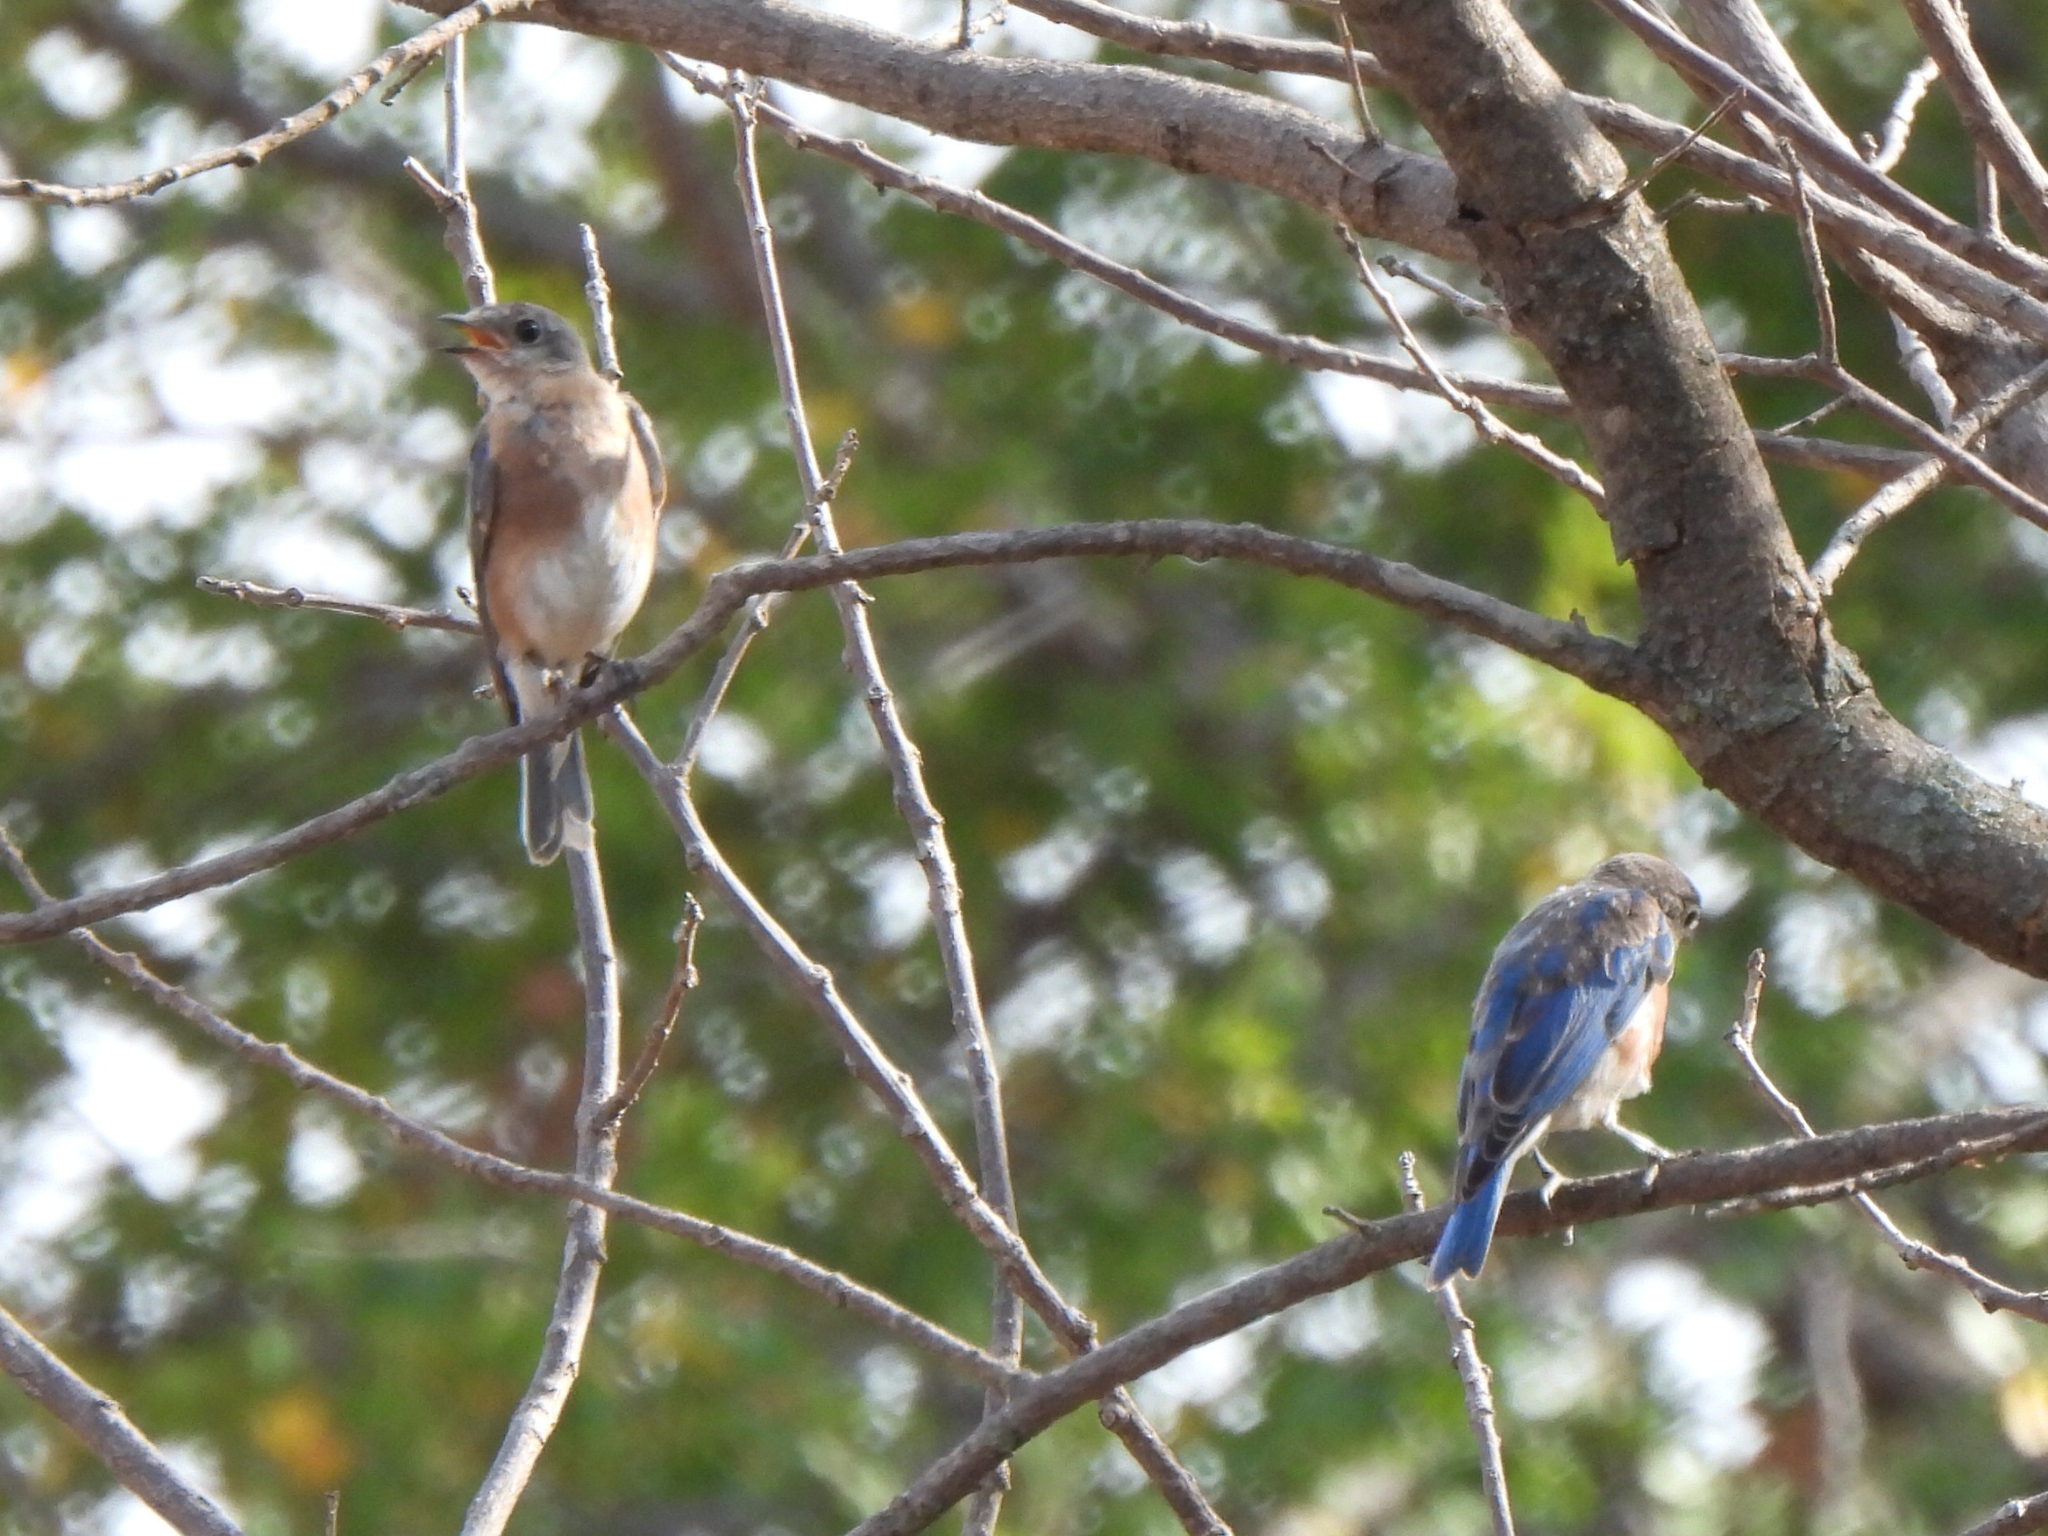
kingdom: Animalia
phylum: Chordata
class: Aves
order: Passeriformes
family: Turdidae
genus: Sialia
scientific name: Sialia sialis
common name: Eastern bluebird
